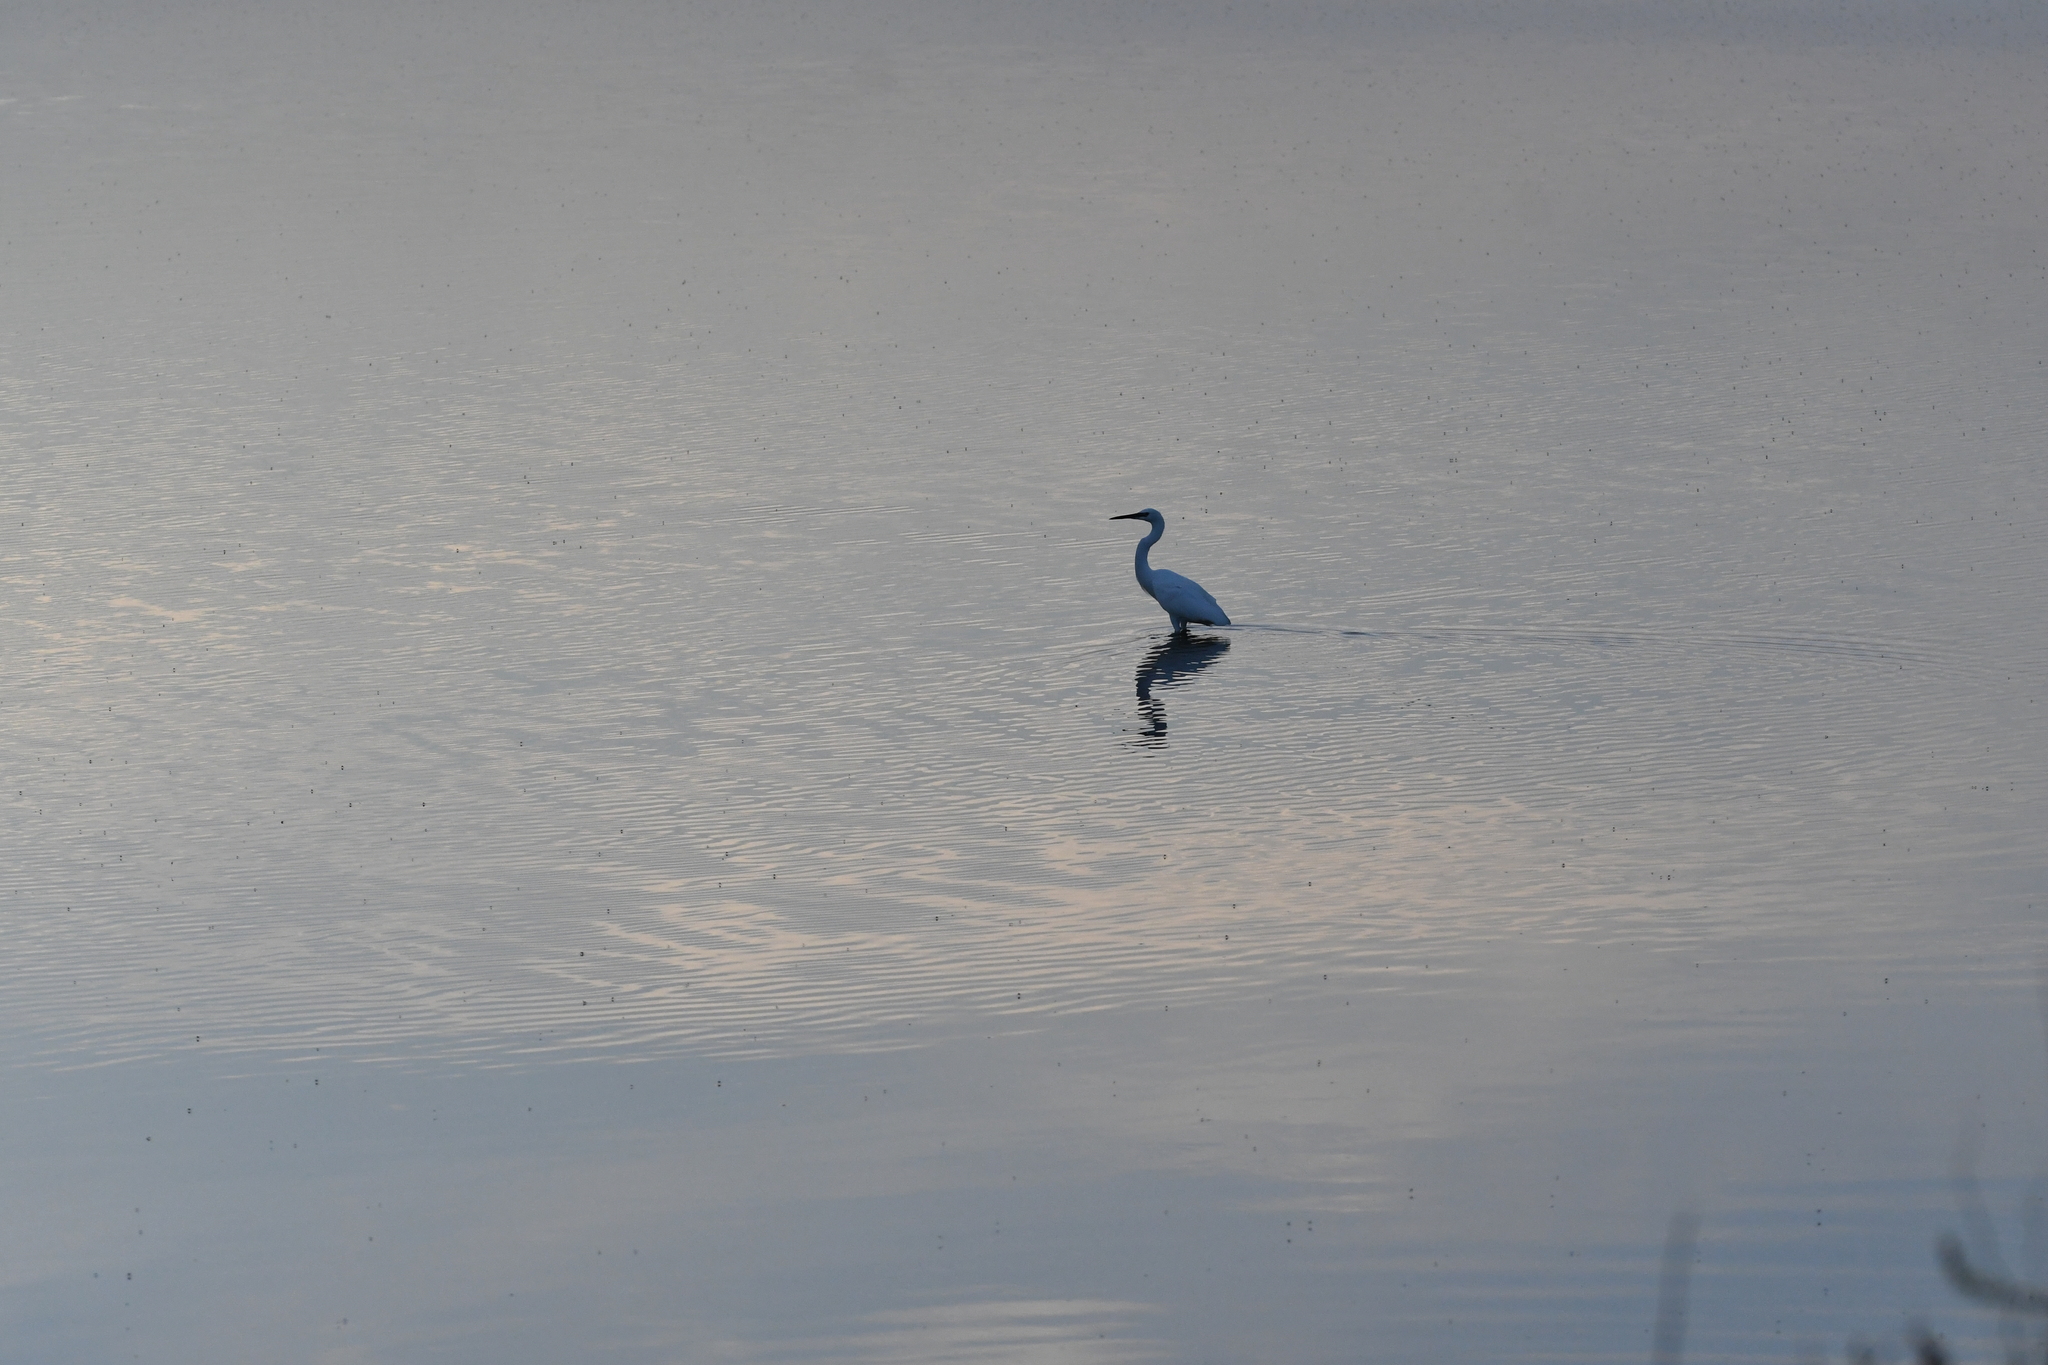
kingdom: Animalia
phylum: Chordata
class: Aves
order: Pelecaniformes
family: Ardeidae
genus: Egretta
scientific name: Egretta garzetta
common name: Little egret
